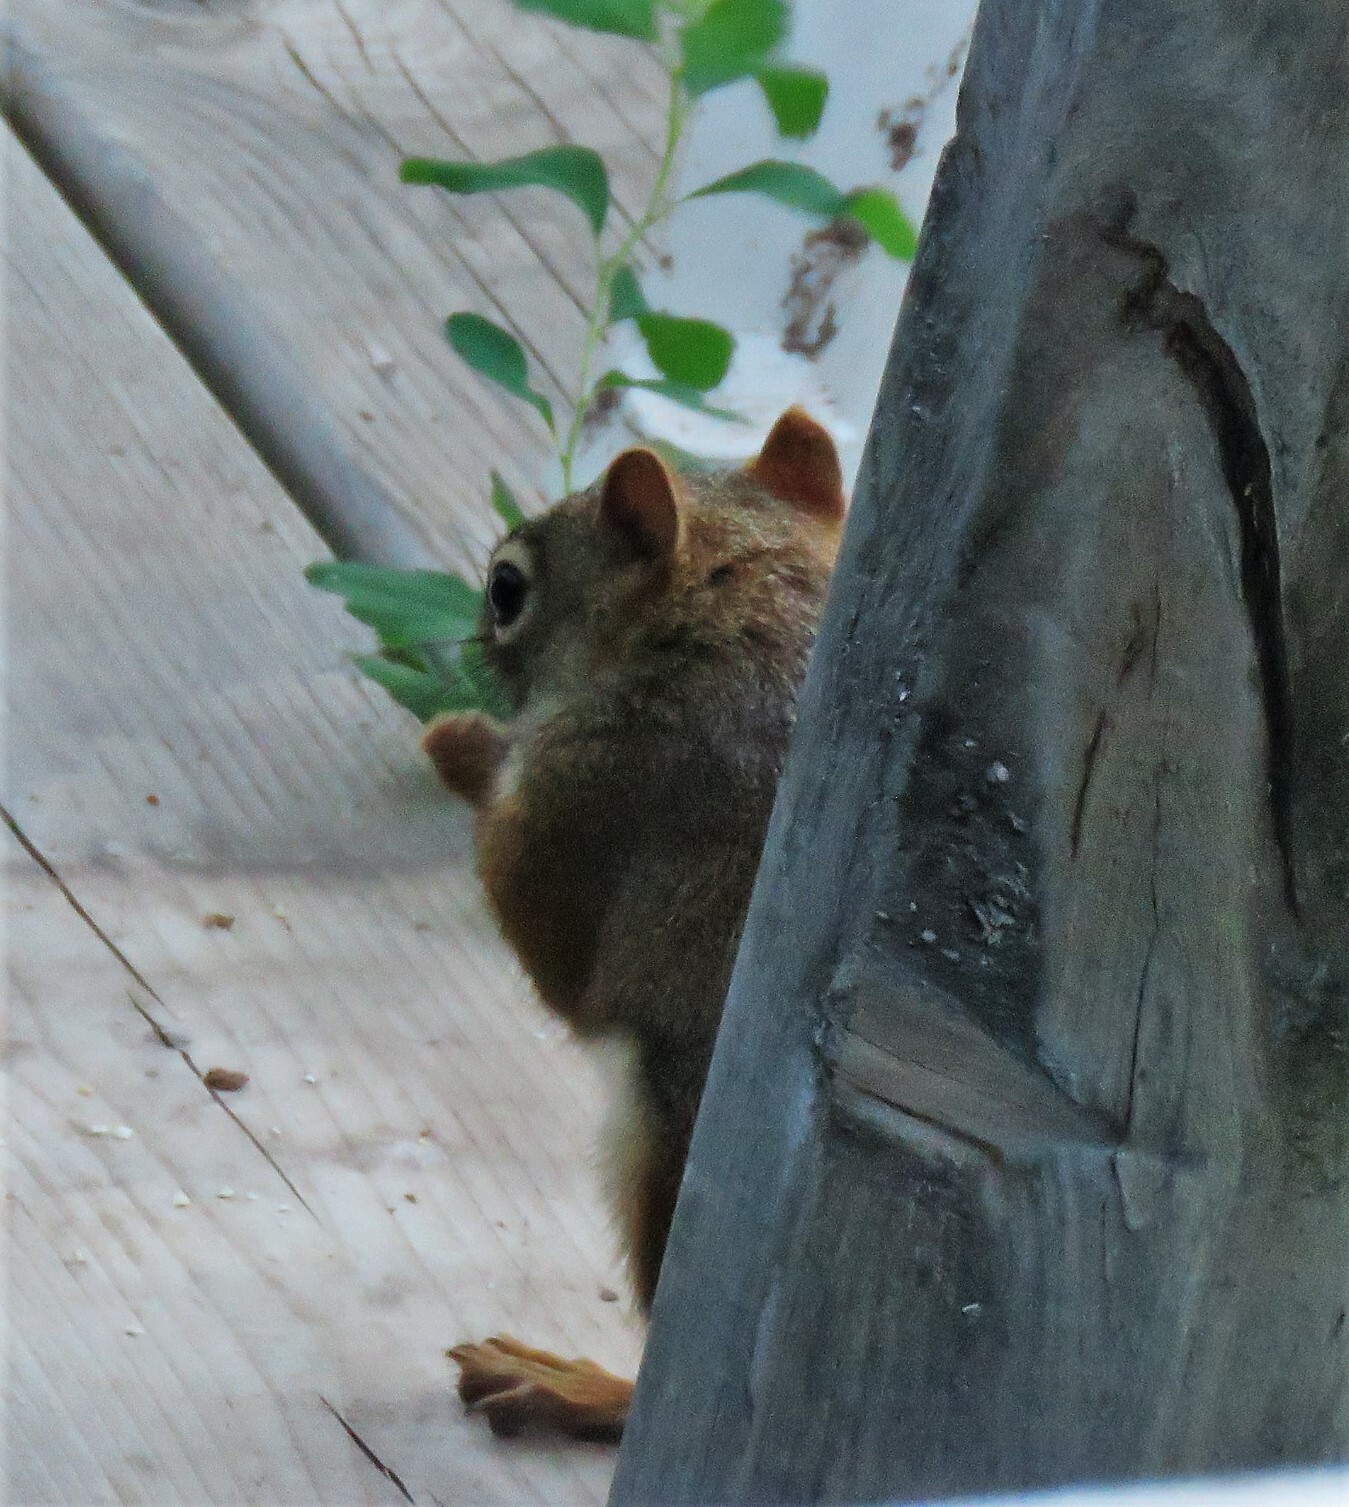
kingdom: Animalia
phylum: Chordata
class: Mammalia
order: Rodentia
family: Sciuridae
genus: Tamiasciurus
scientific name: Tamiasciurus hudsonicus
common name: Red squirrel
